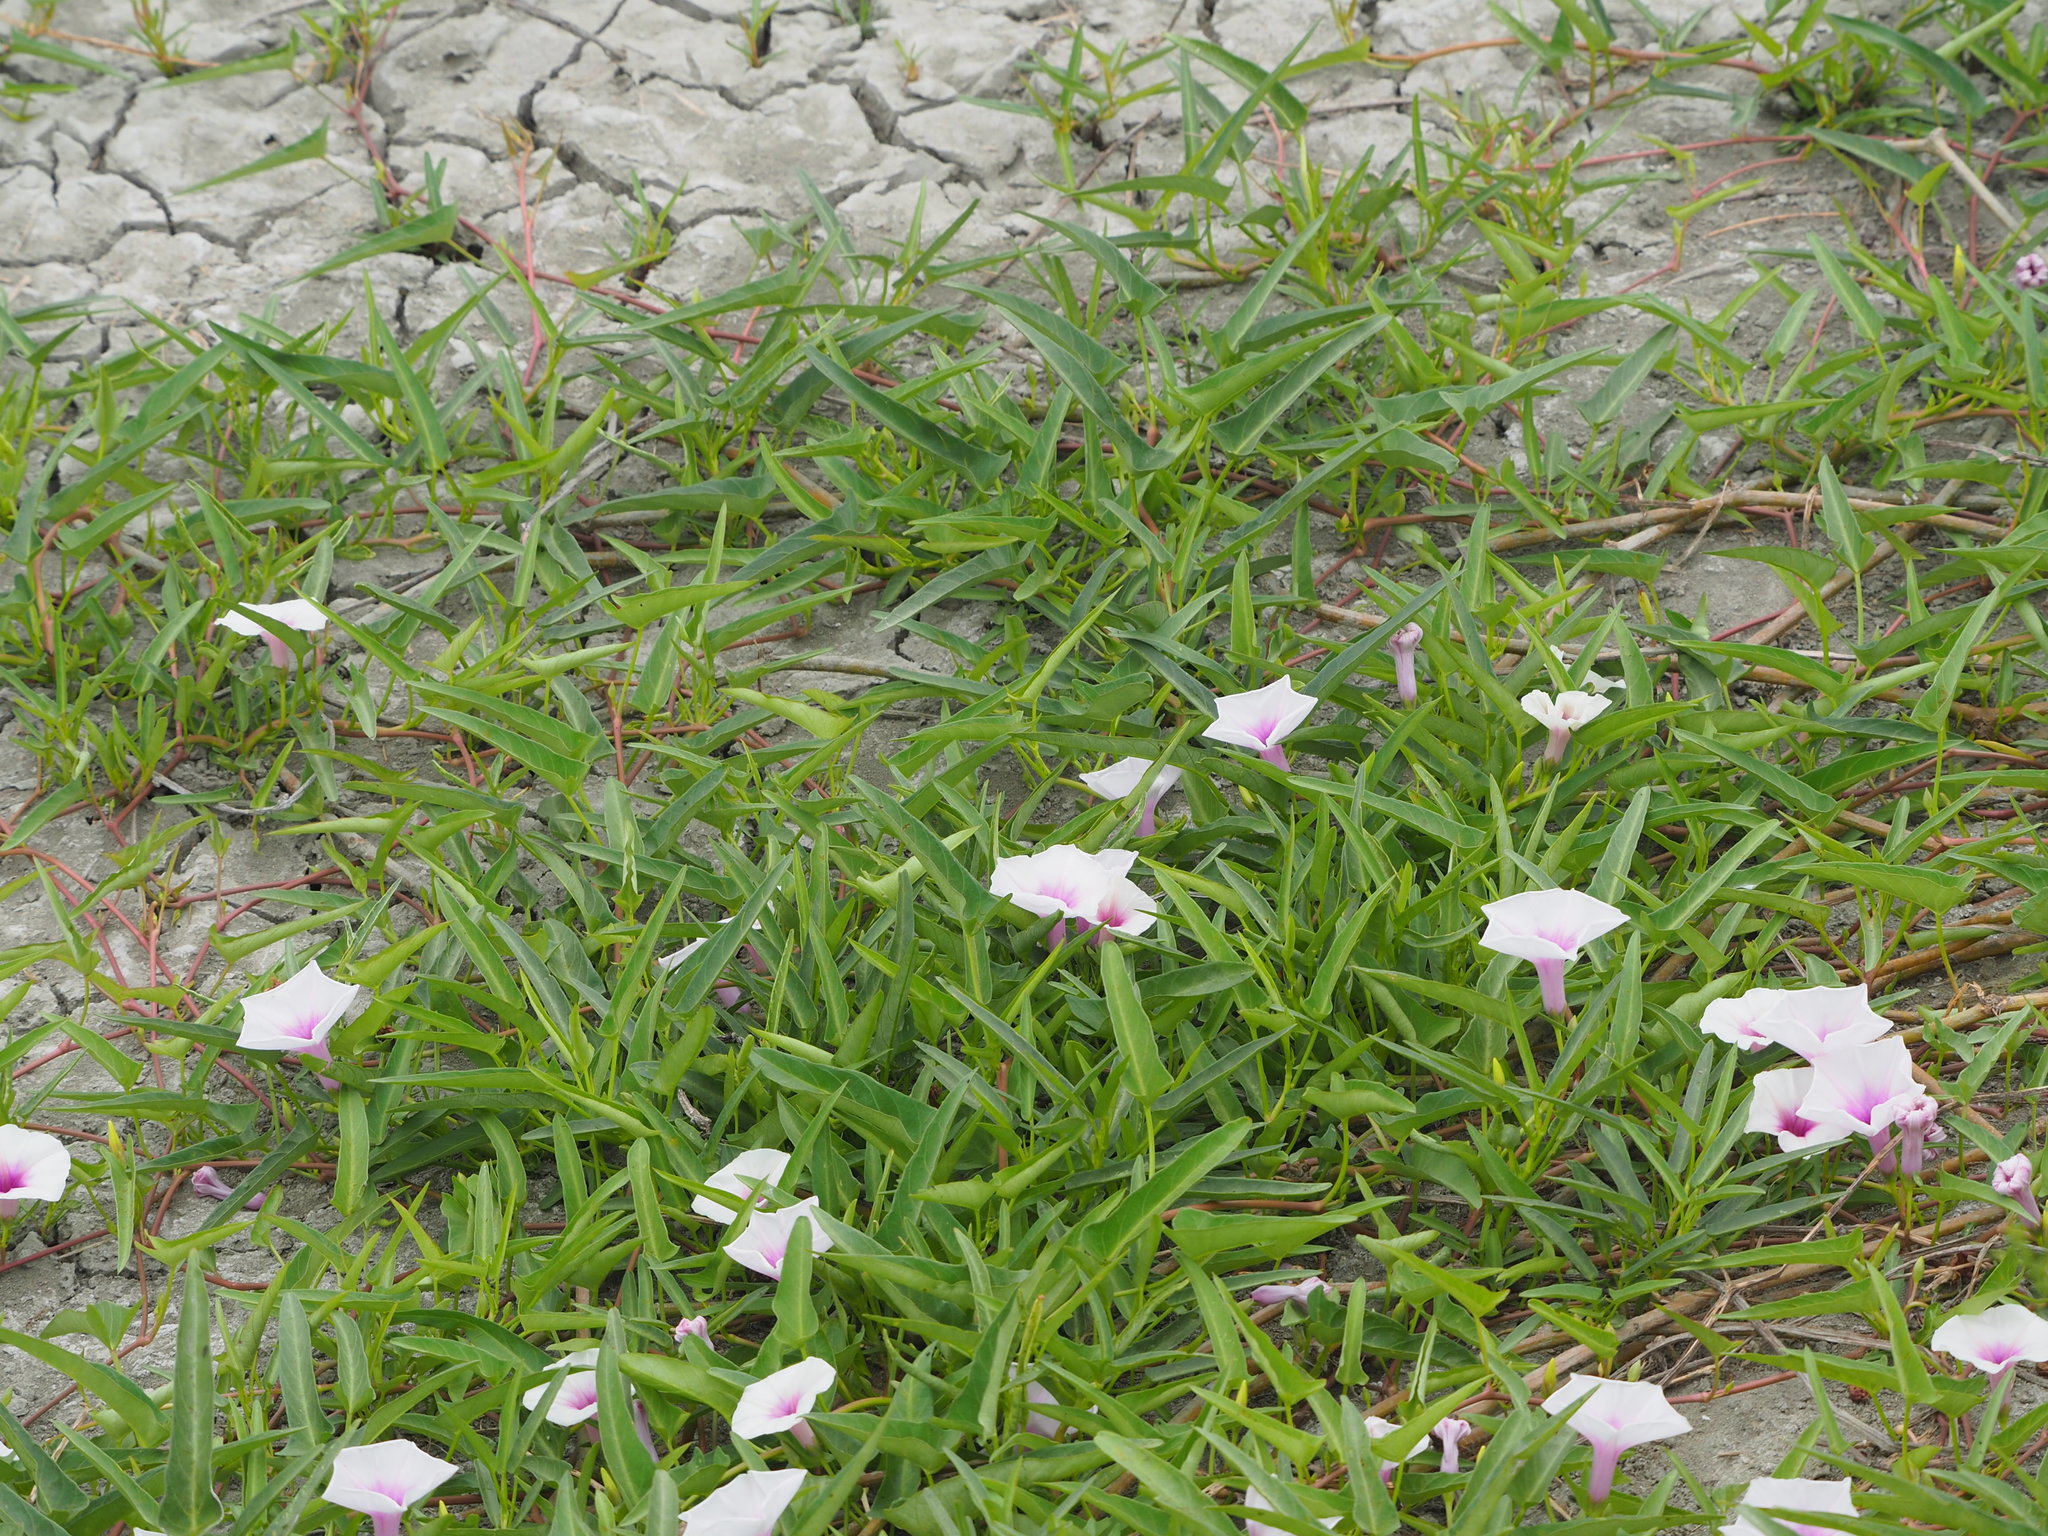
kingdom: Plantae
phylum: Tracheophyta
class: Magnoliopsida
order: Solanales
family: Convolvulaceae
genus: Ipomoea
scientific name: Ipomoea aquatica
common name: Swamp morning-glory
